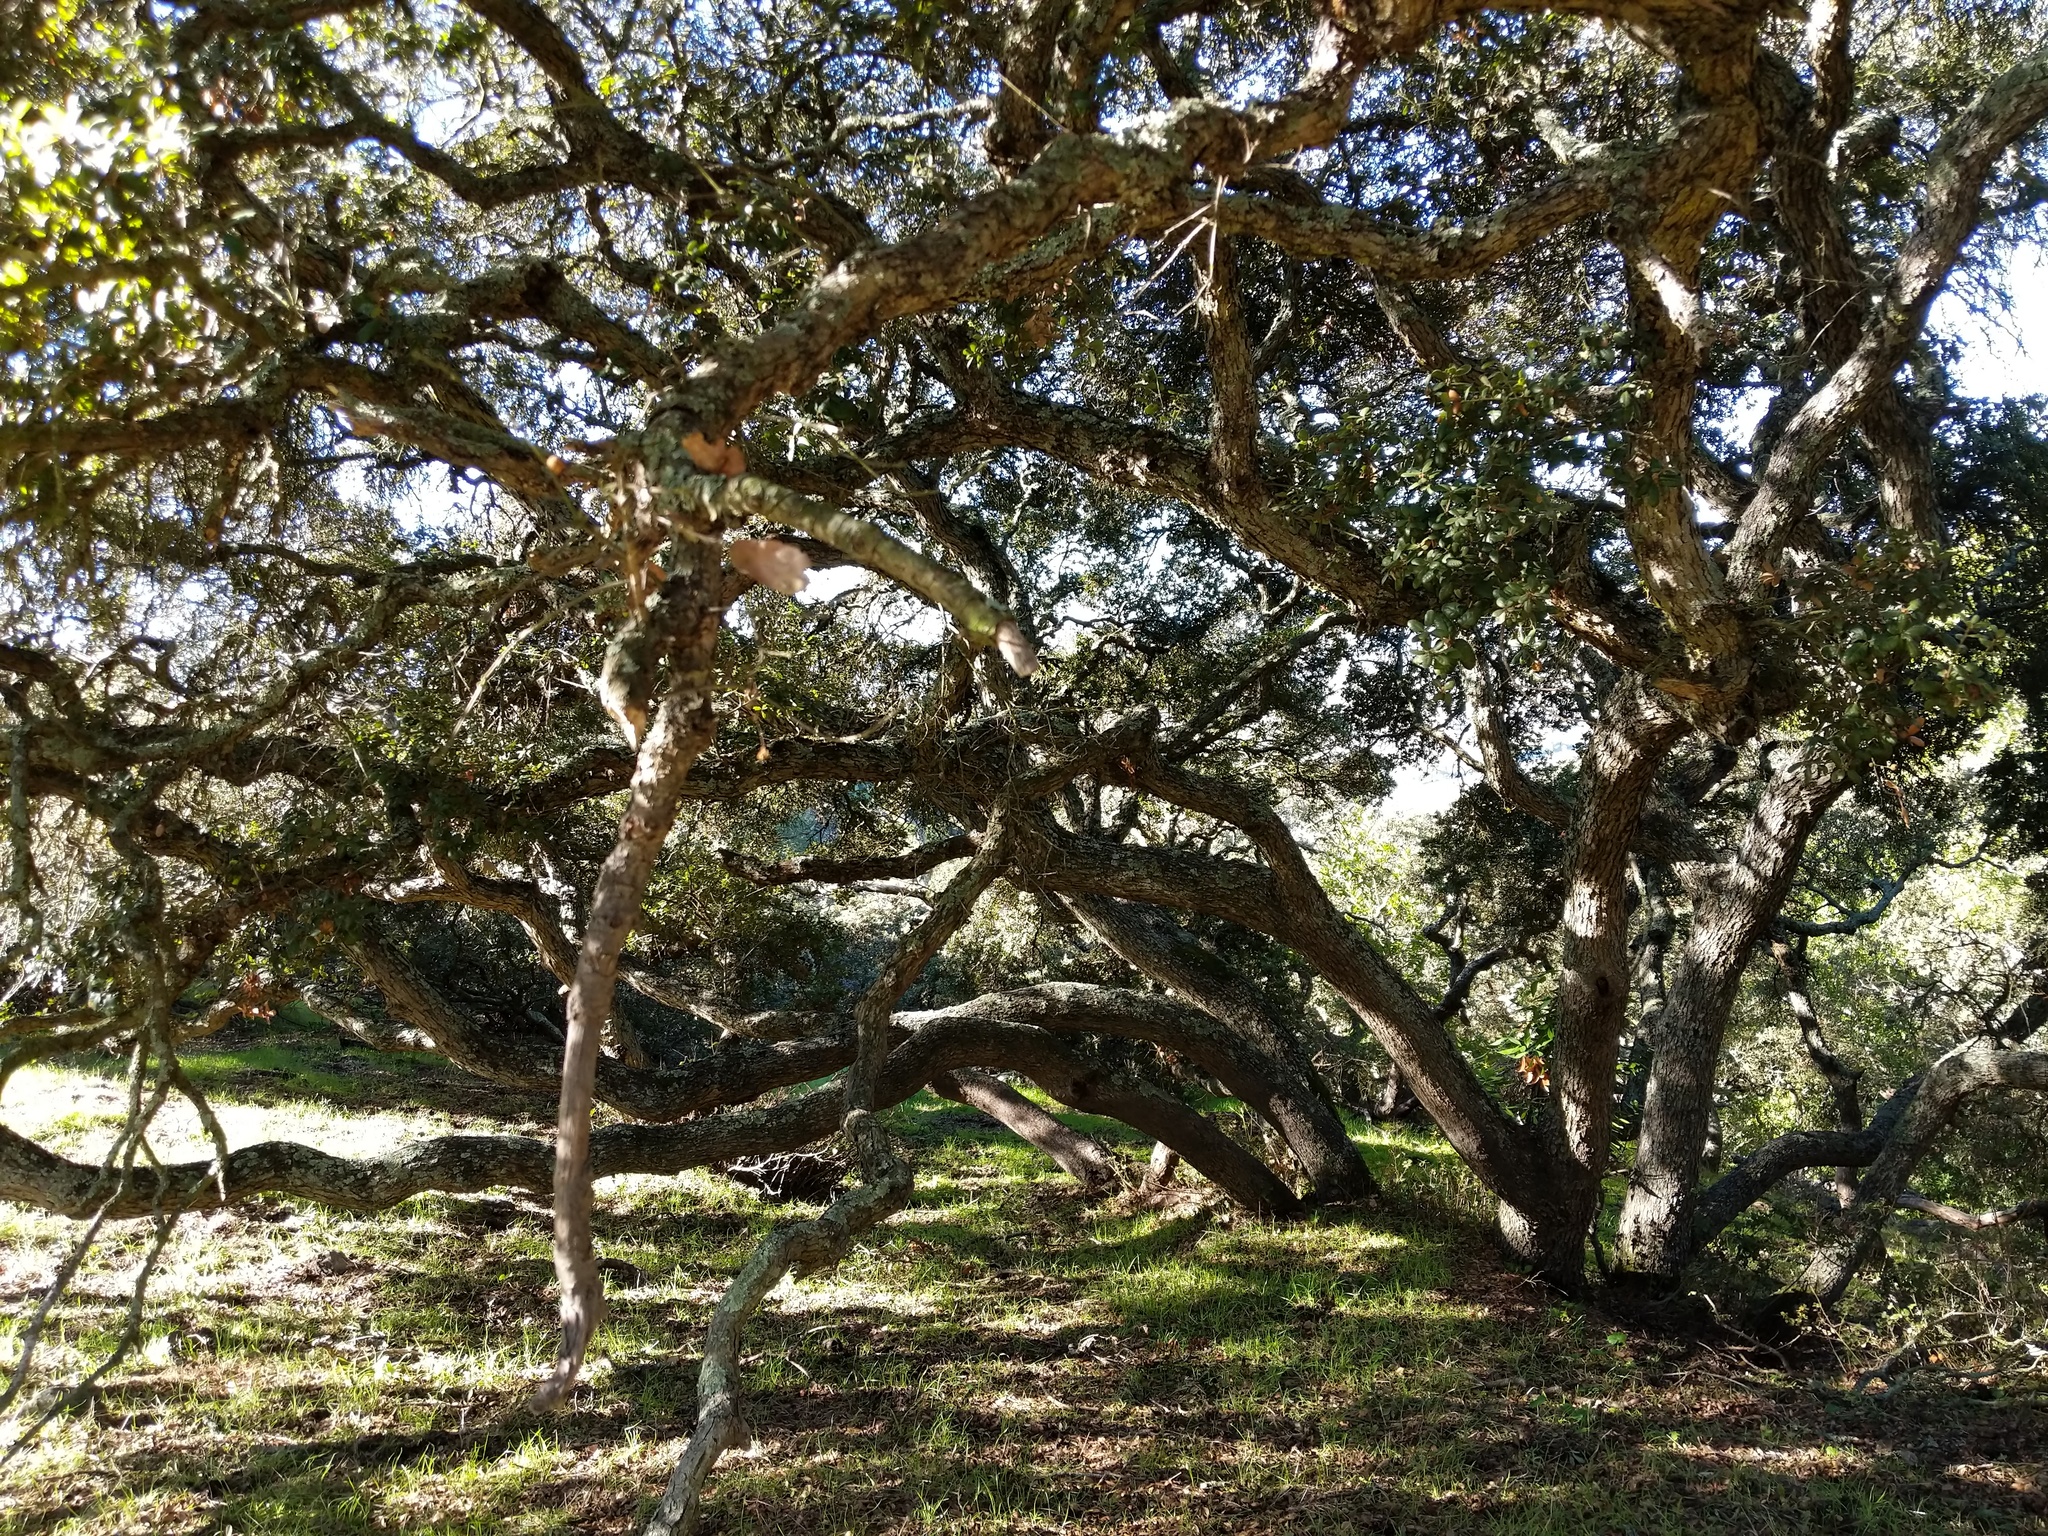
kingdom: Plantae
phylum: Tracheophyta
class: Magnoliopsida
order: Fagales
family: Fagaceae
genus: Quercus
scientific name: Quercus durata
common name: Leather oak
